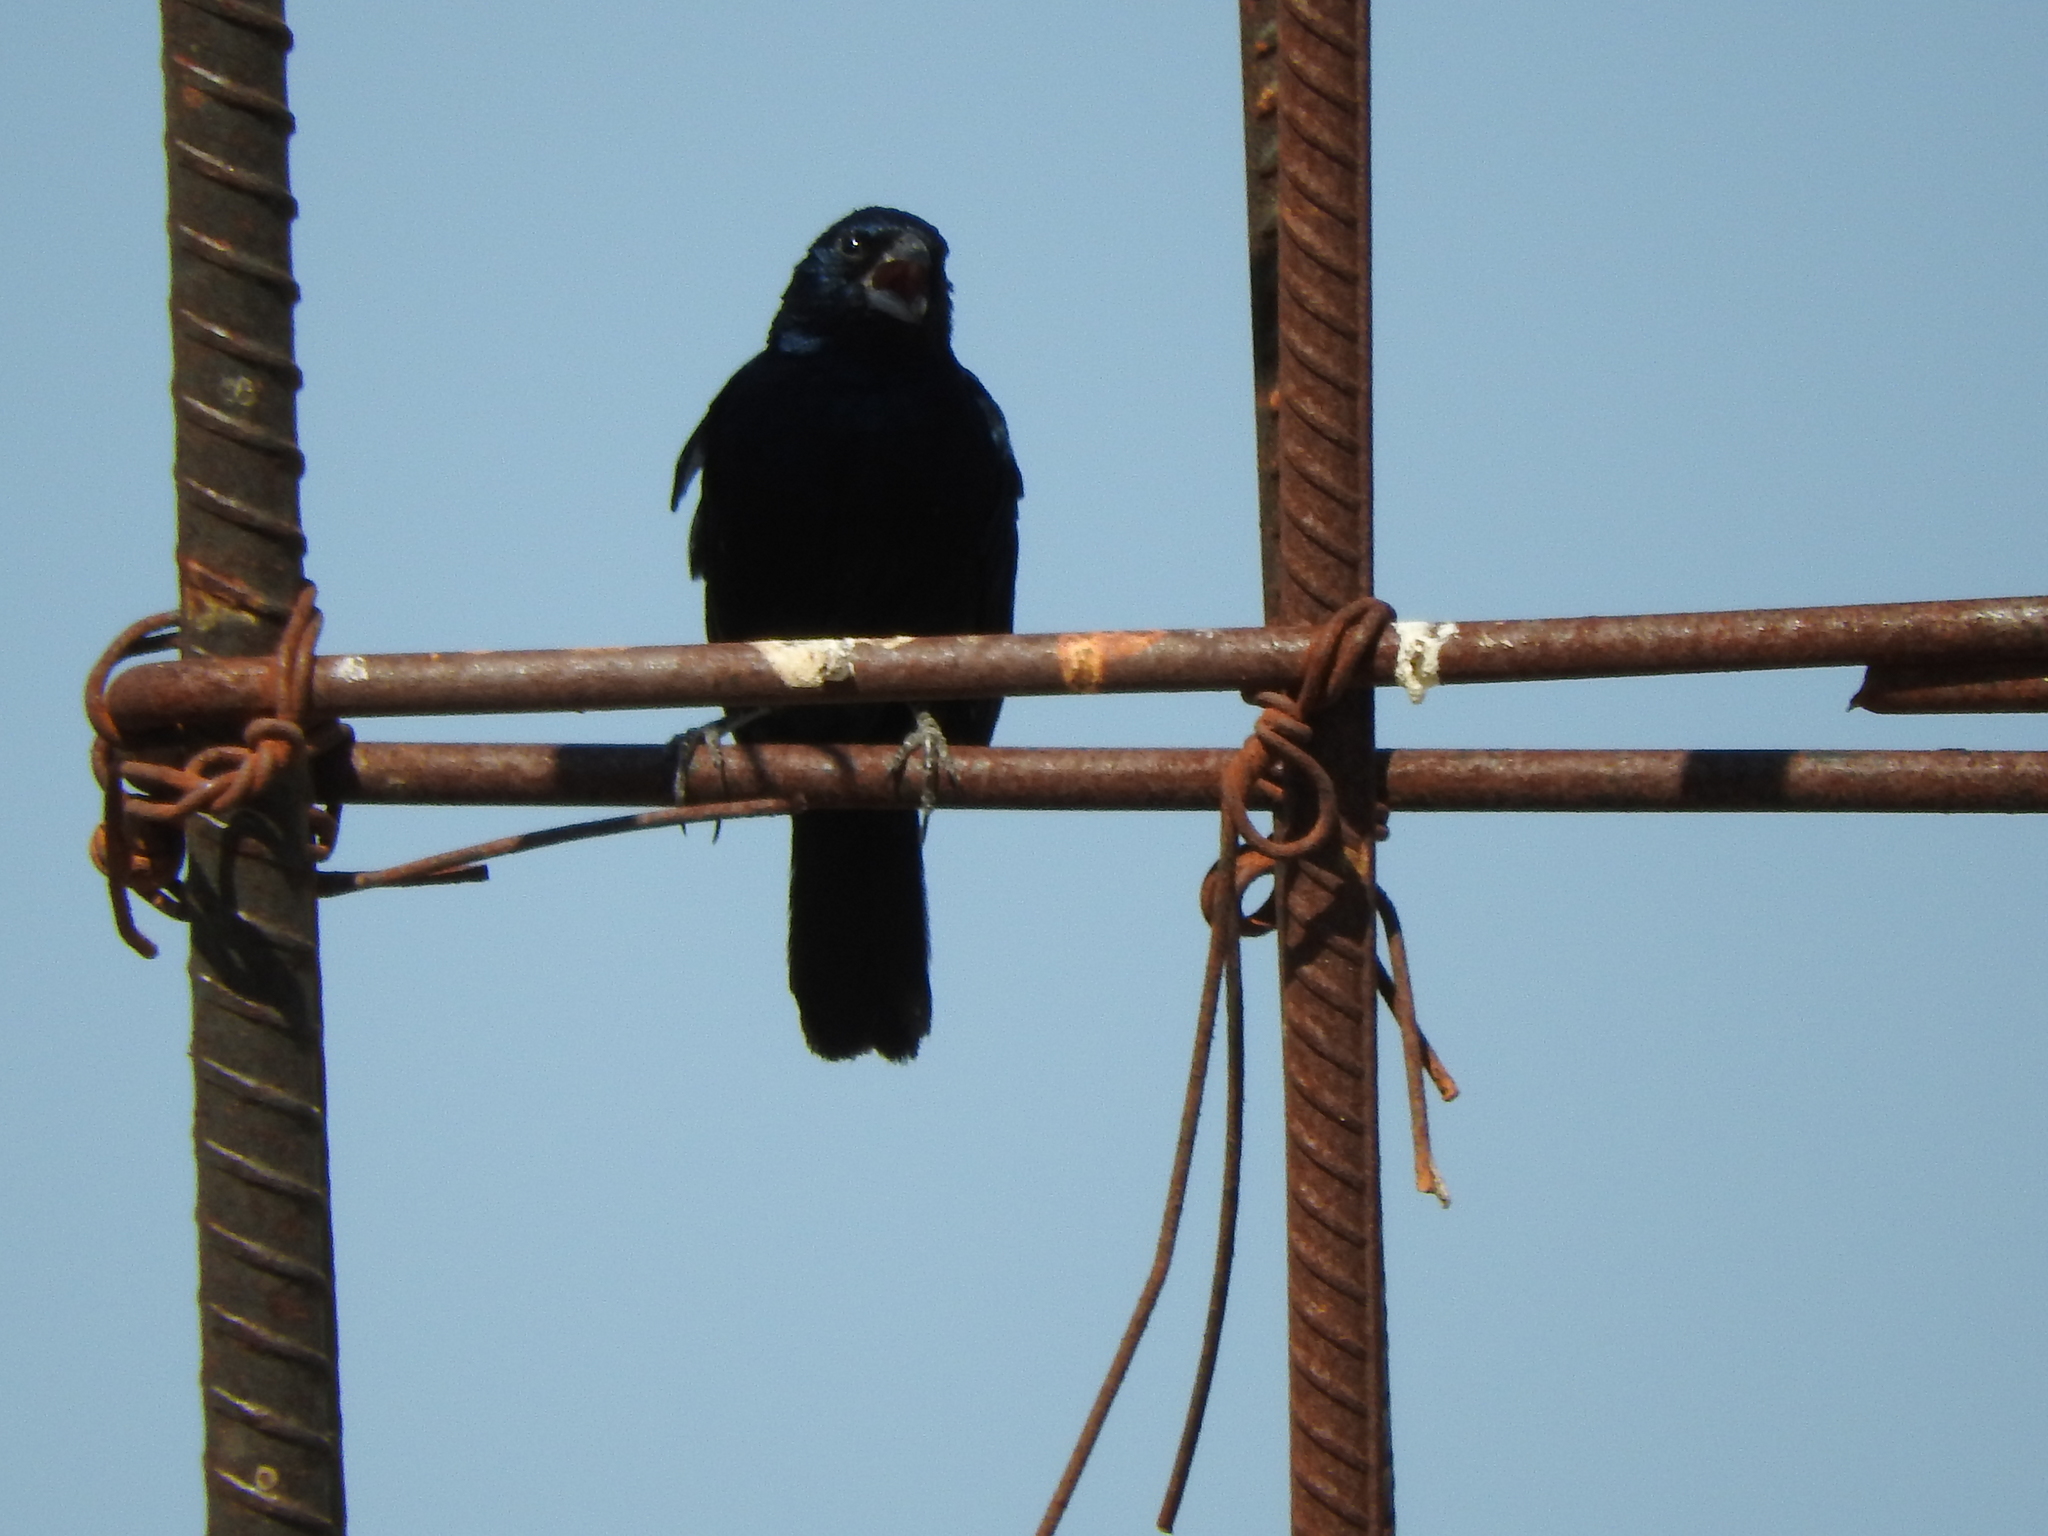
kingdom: Animalia
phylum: Chordata
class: Aves
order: Passeriformes
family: Thraupidae
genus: Volatinia
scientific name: Volatinia jacarina
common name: Blue-black grassquit
